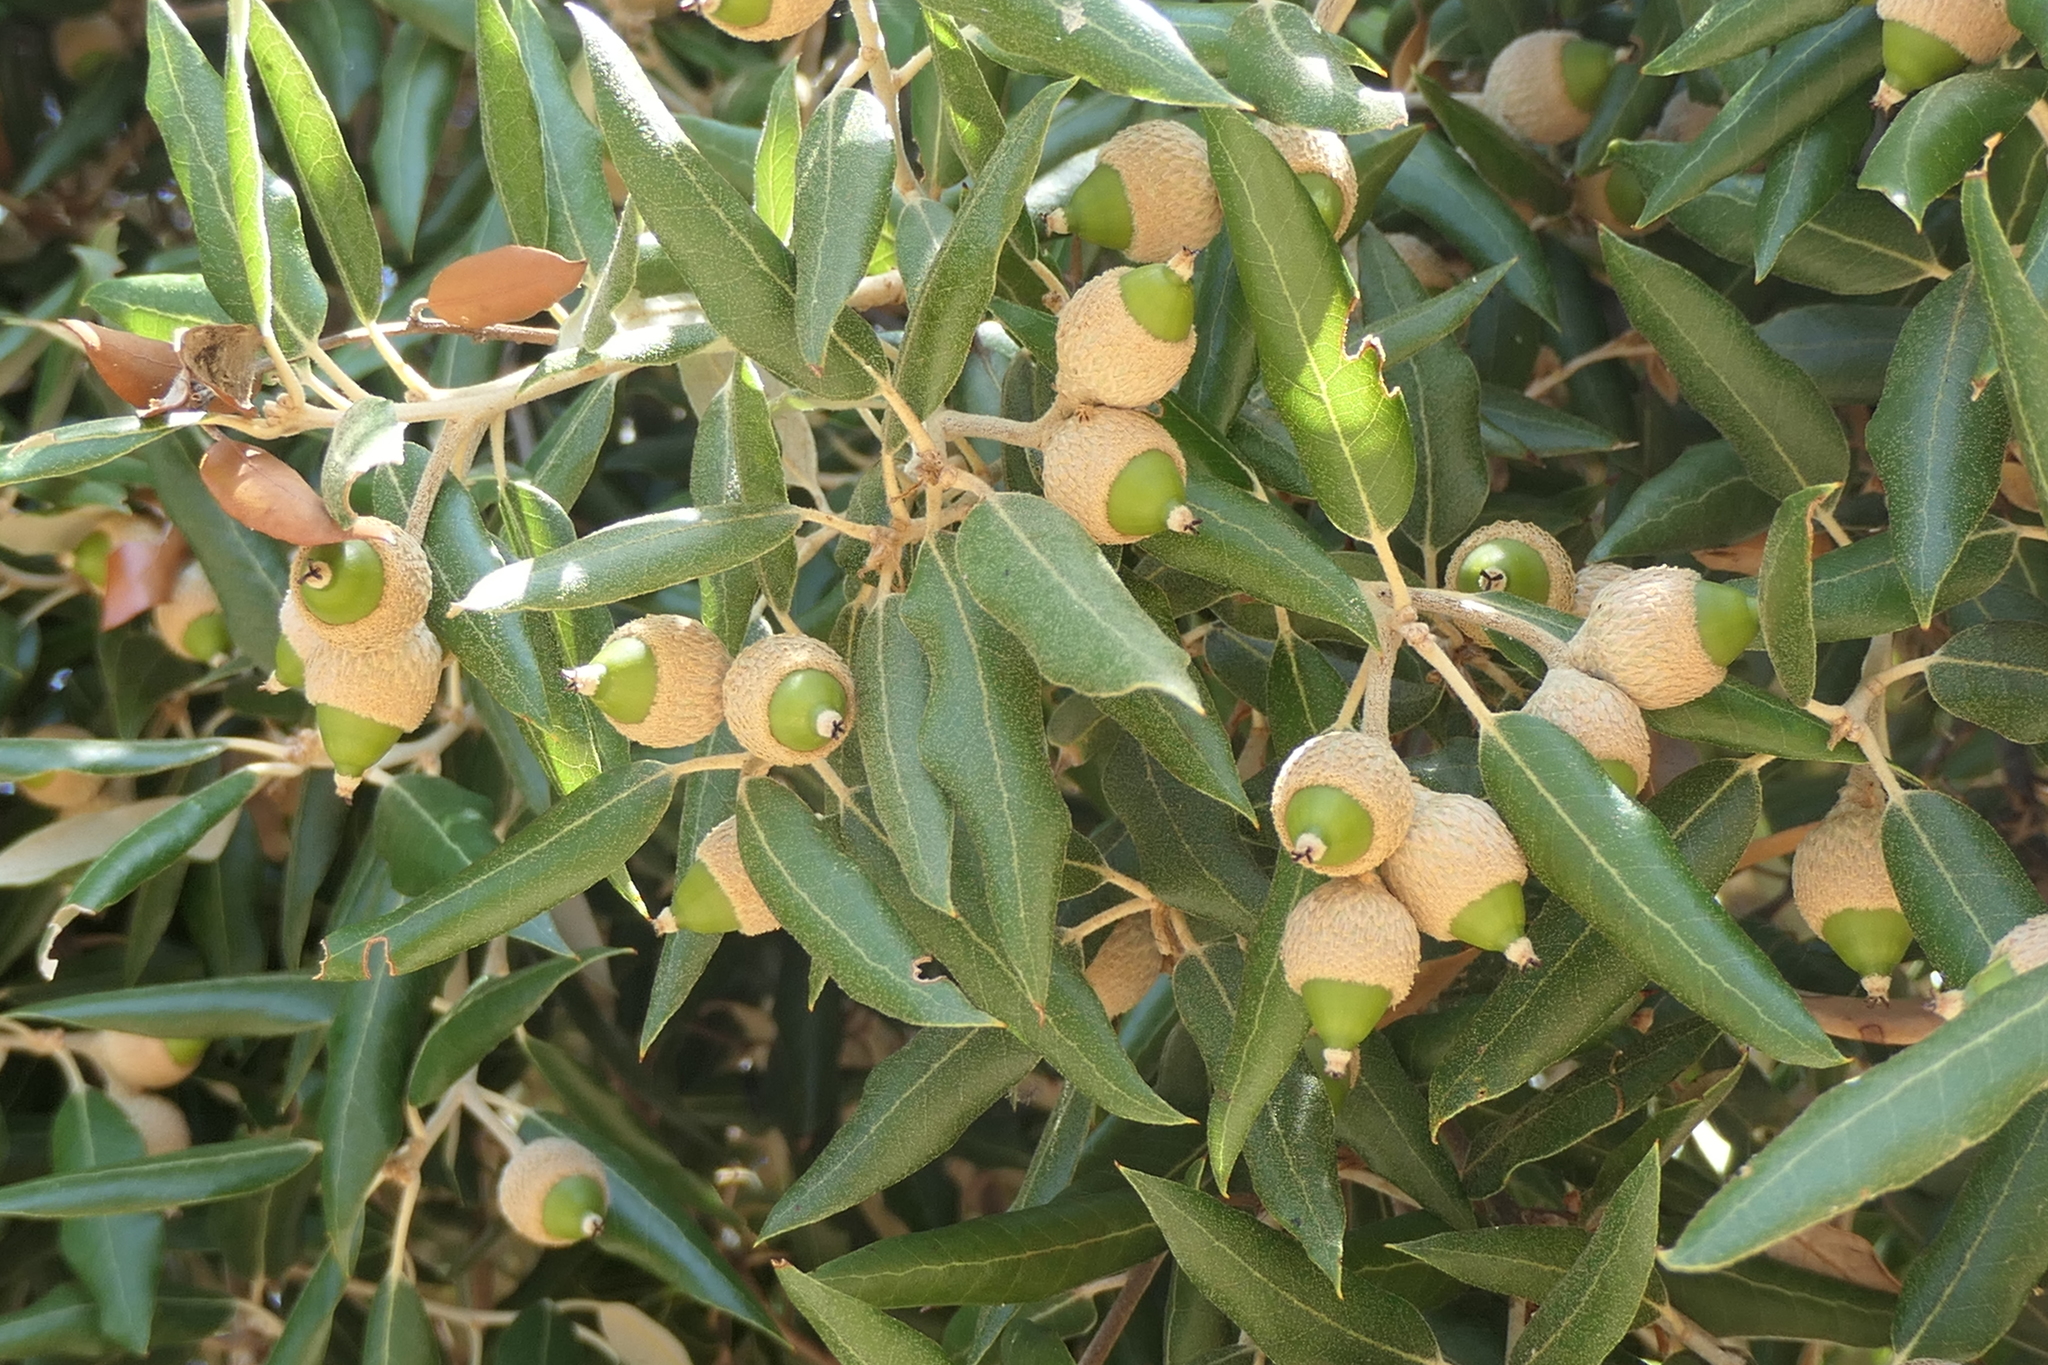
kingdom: Plantae
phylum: Tracheophyta
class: Magnoliopsida
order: Fagales
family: Fagaceae
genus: Quercus
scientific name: Quercus ilex
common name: Evergreen oak
